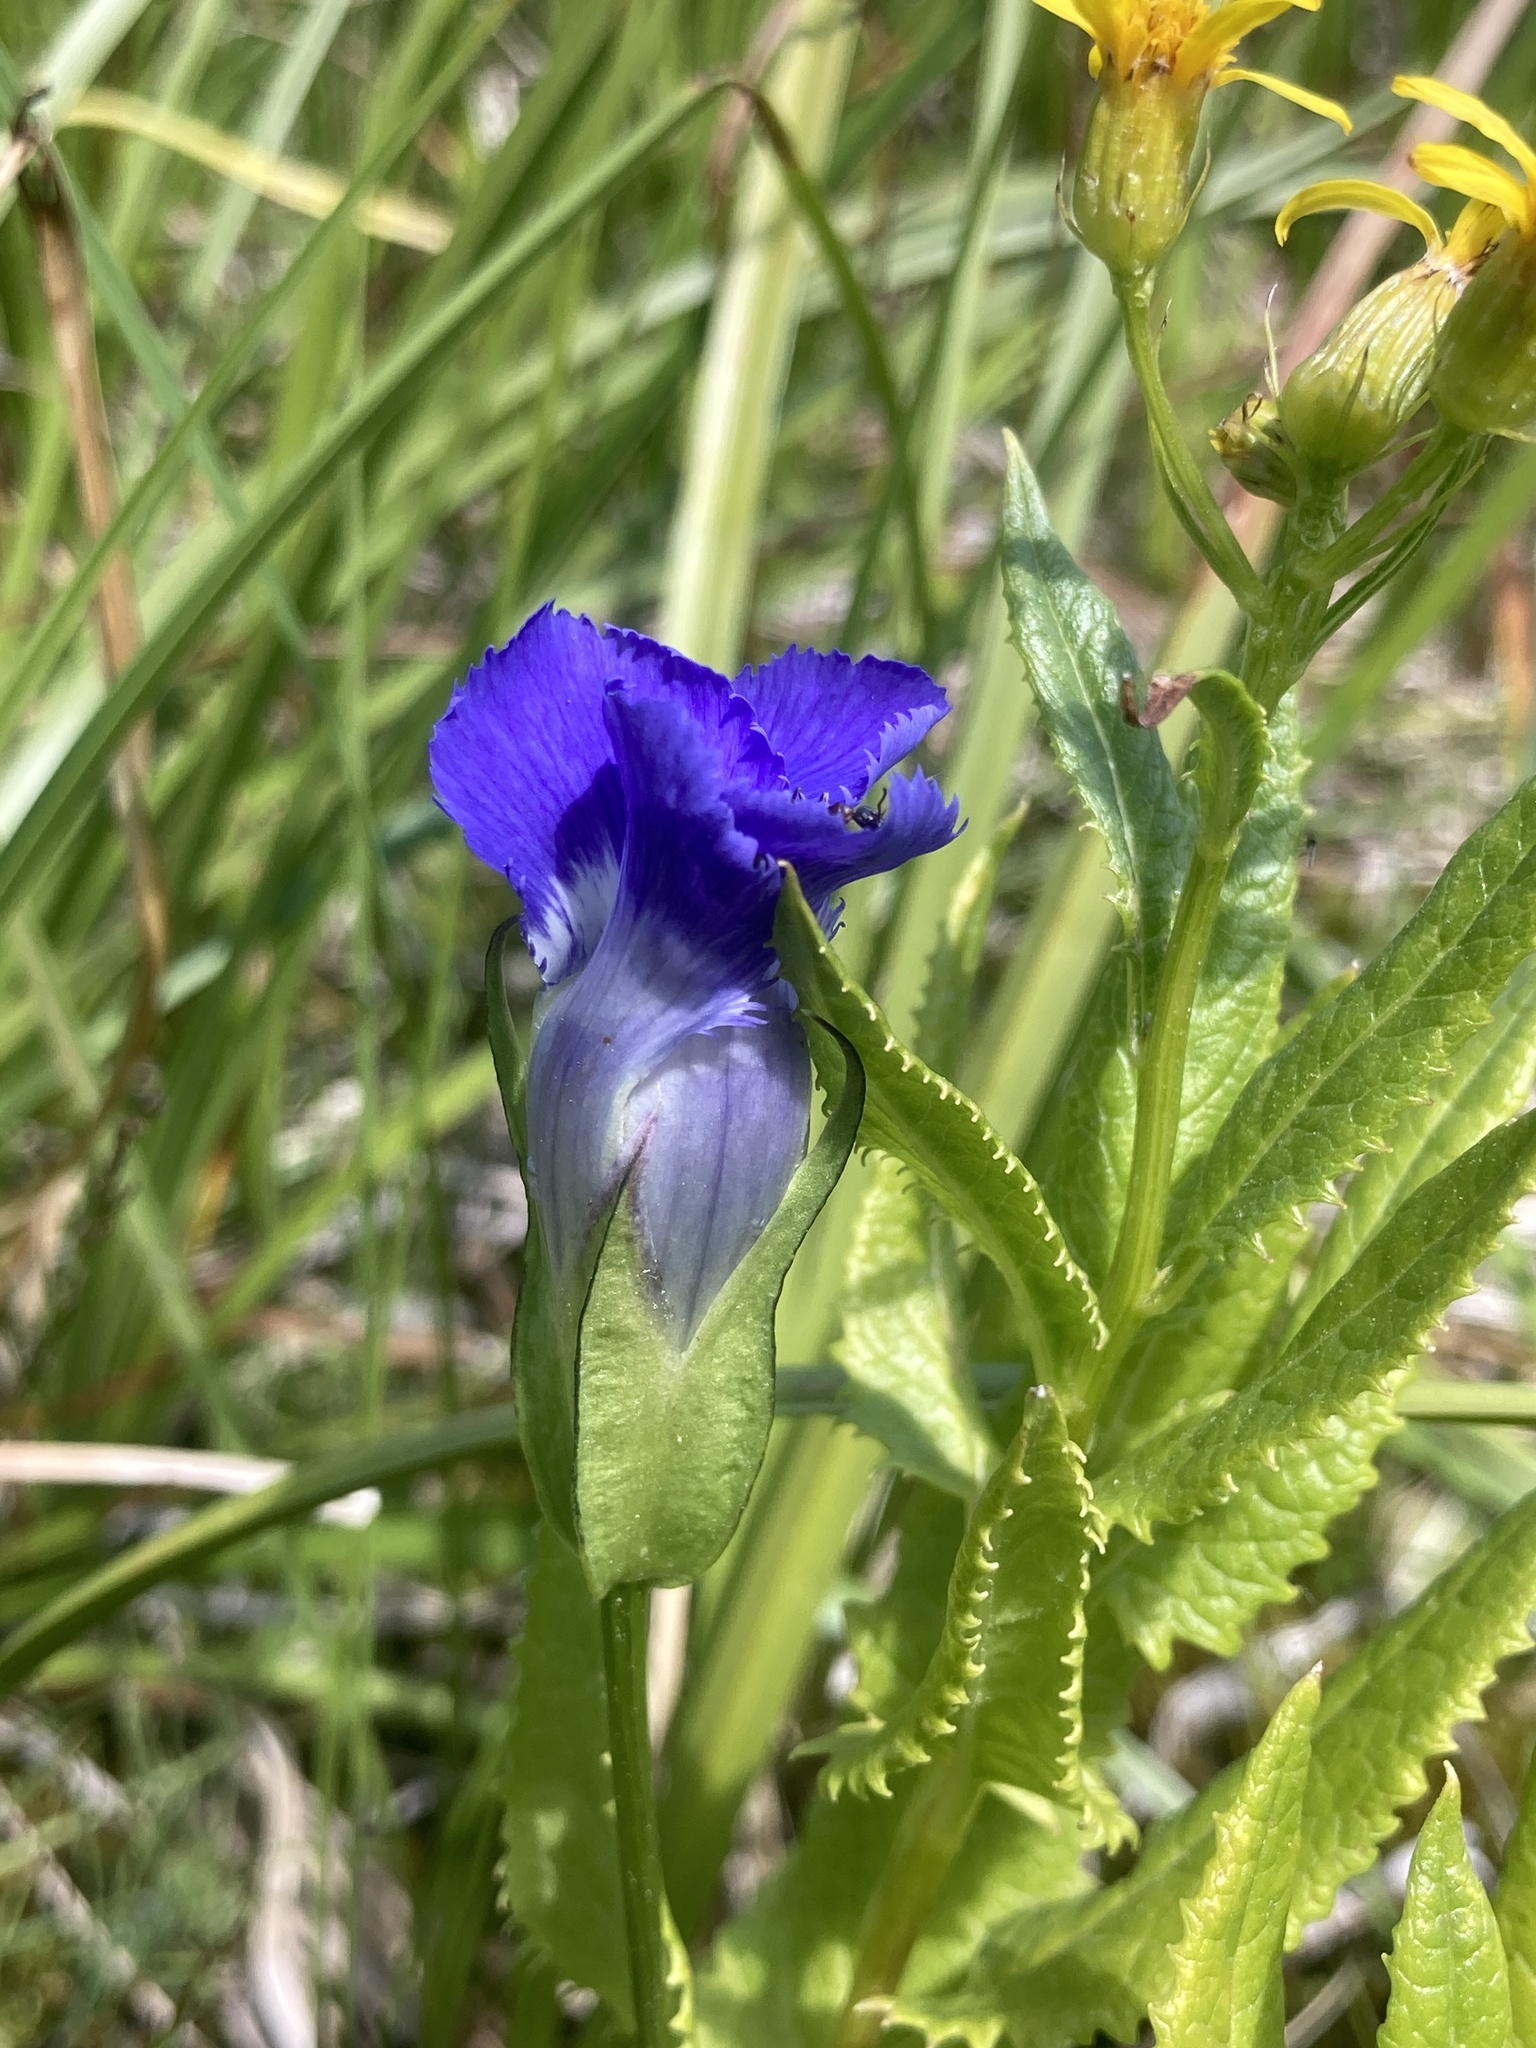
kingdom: Plantae
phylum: Tracheophyta
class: Magnoliopsida
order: Gentianales
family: Gentianaceae
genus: Gentianopsis
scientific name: Gentianopsis thermalis
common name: Rocky mountain fringed-gentian
